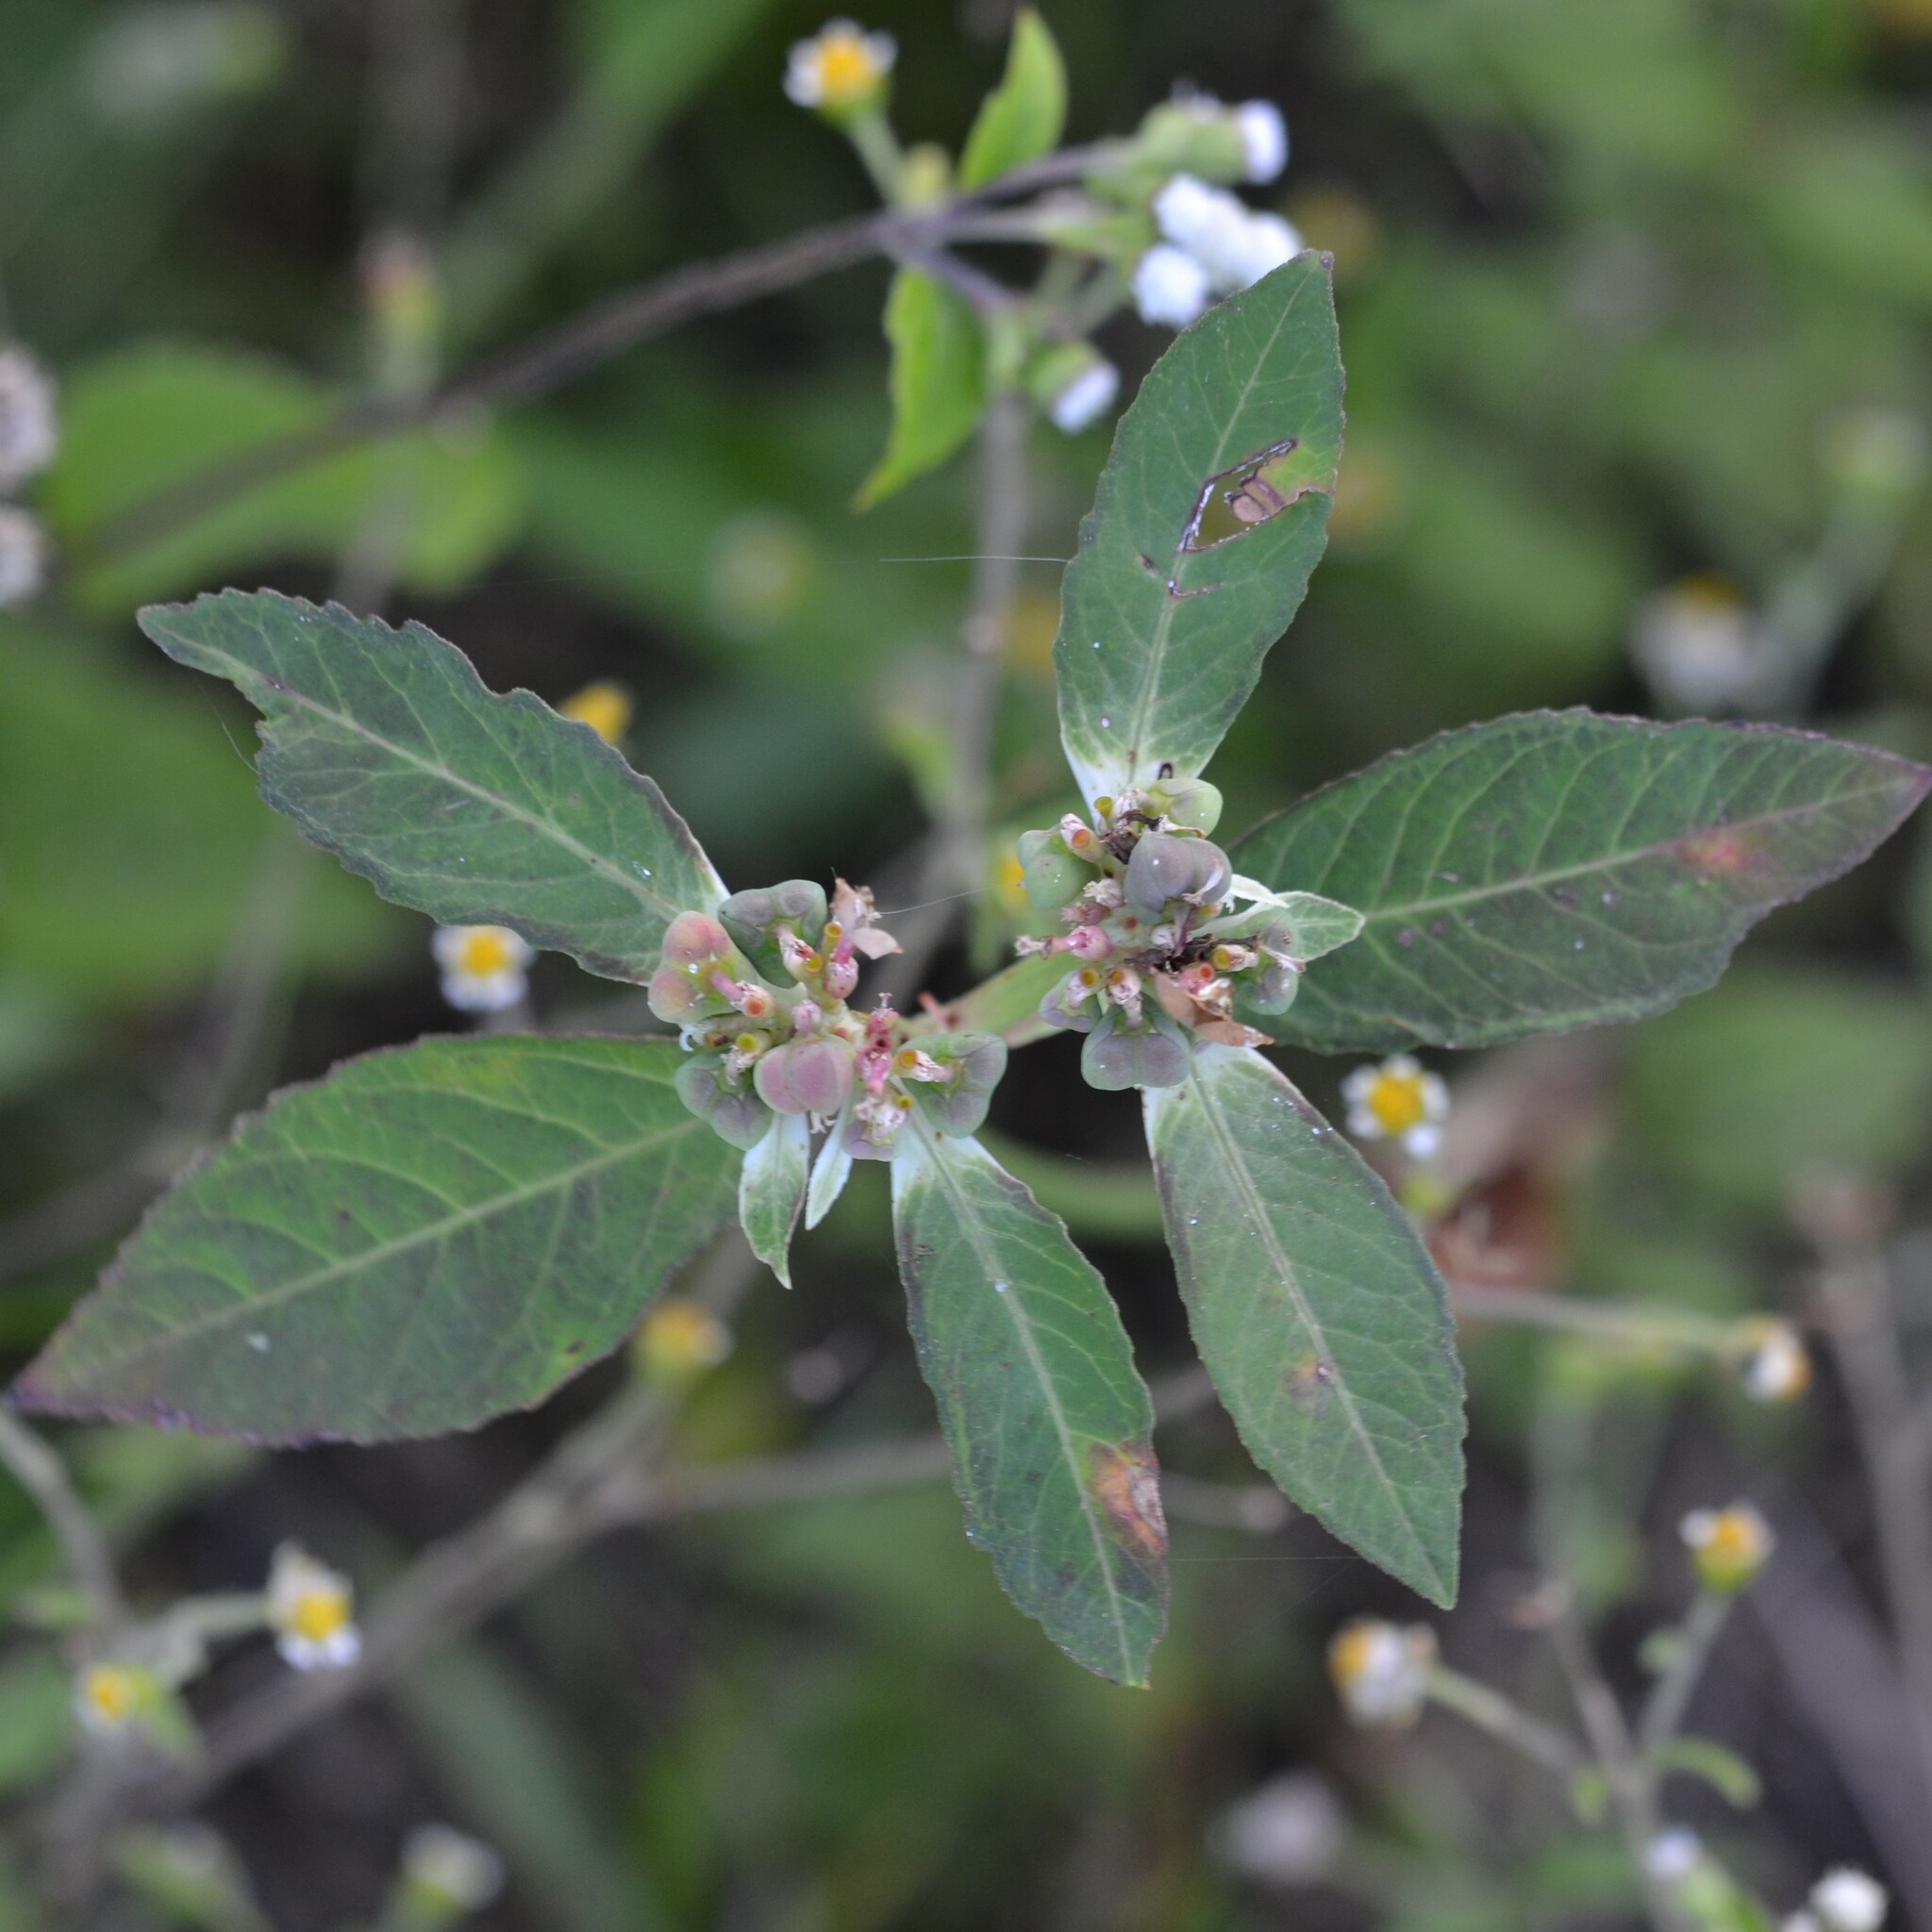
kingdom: Plantae
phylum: Tracheophyta
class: Magnoliopsida
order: Malpighiales
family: Euphorbiaceae
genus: Euphorbia
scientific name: Euphorbia heterophylla
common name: Mexican fireplant
